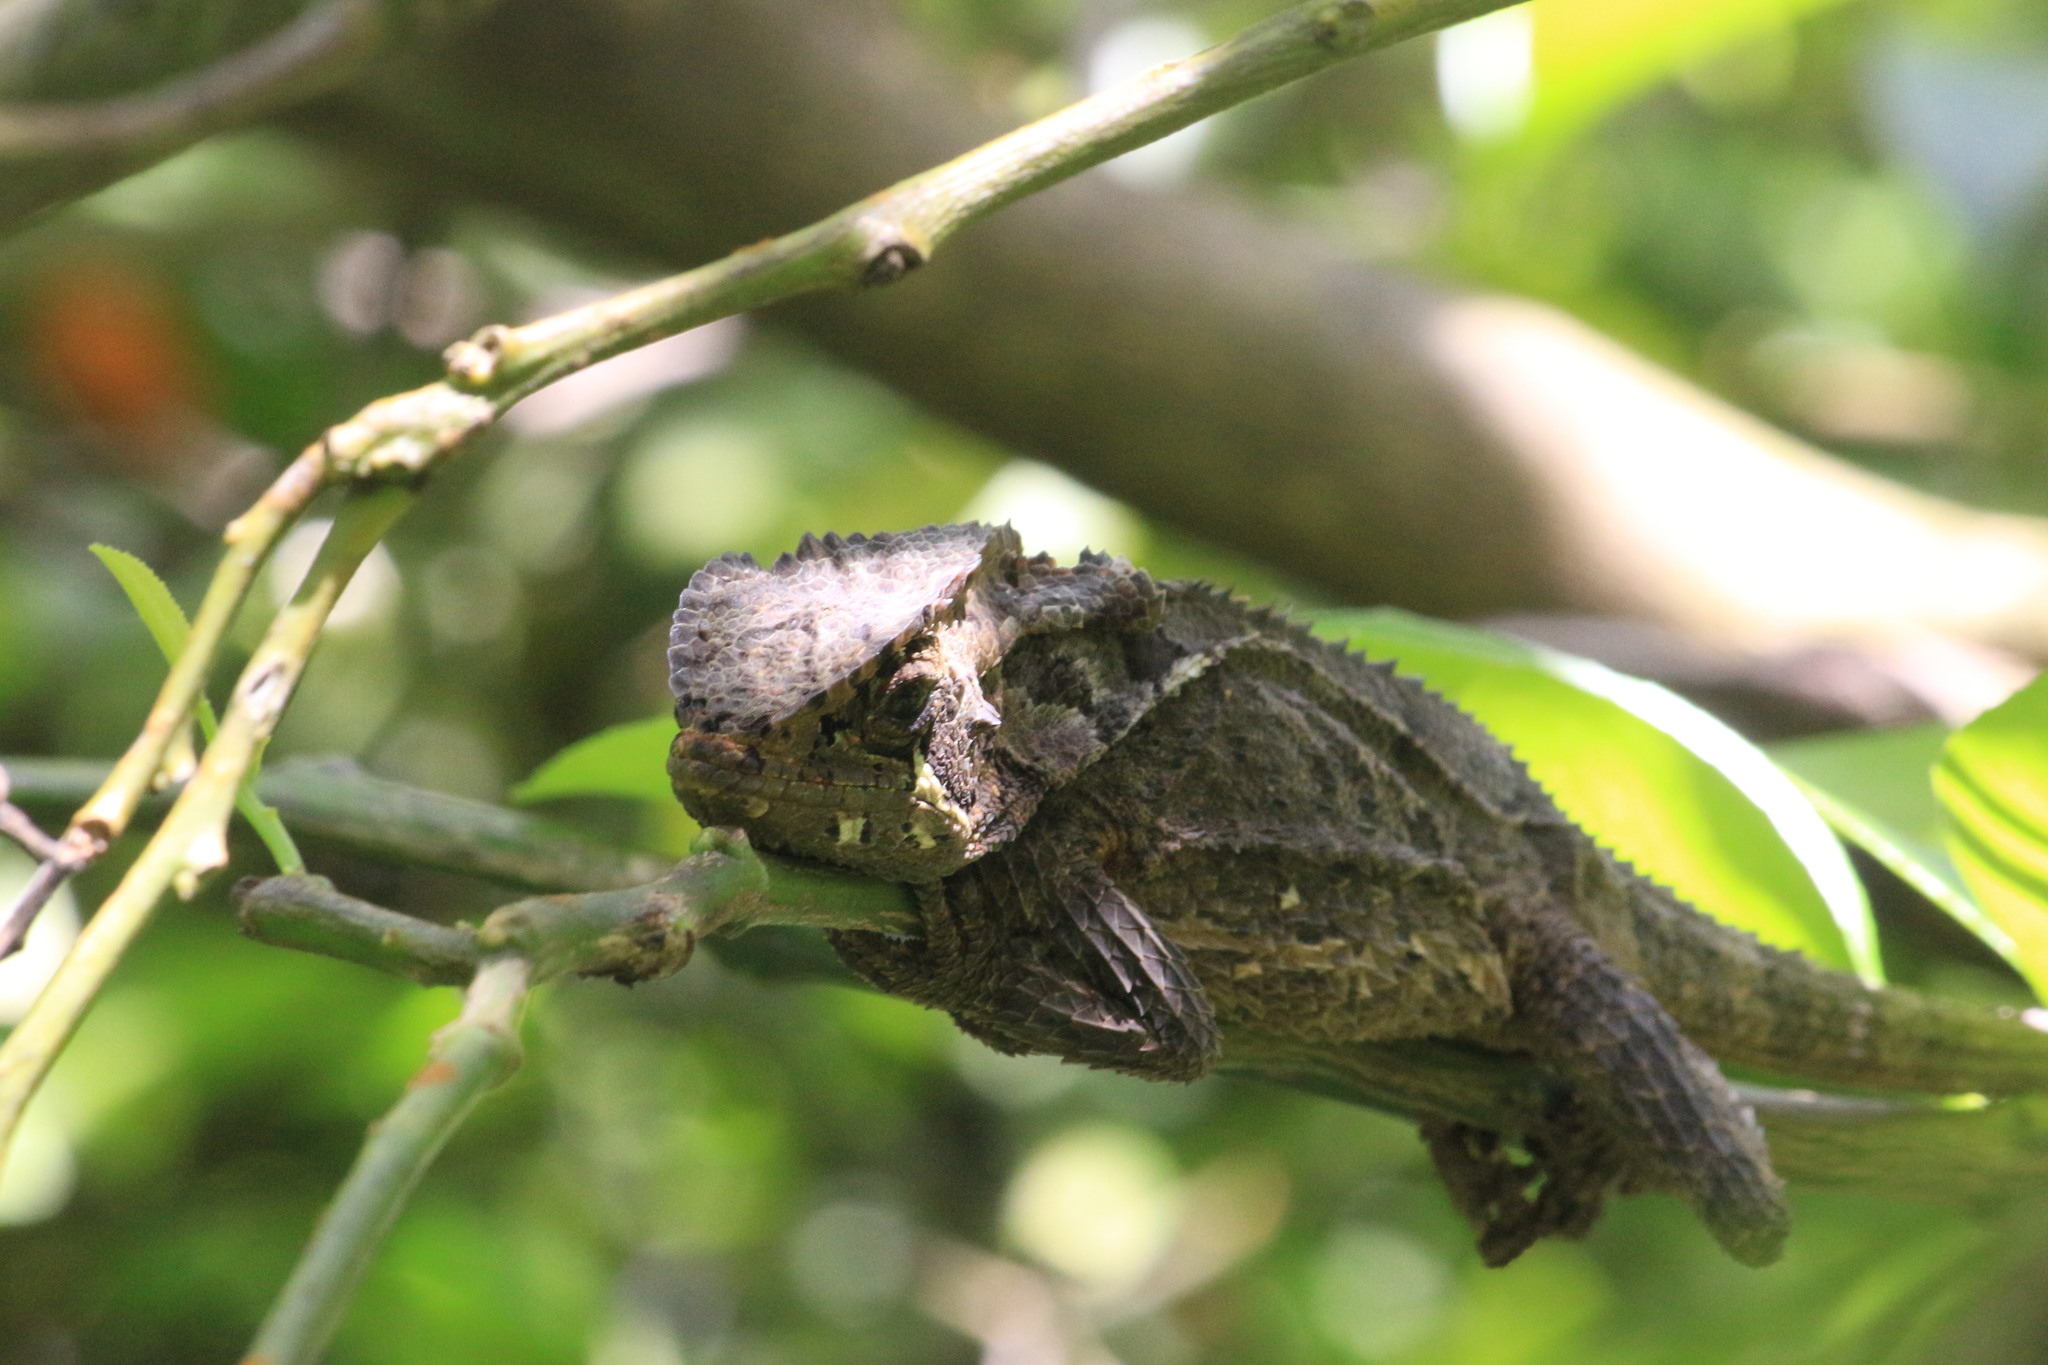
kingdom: Animalia
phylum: Chordata
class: Squamata
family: Corytophanidae
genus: Corytophanes
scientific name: Corytophanes percarinatus
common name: Keeled helmeted iguana
